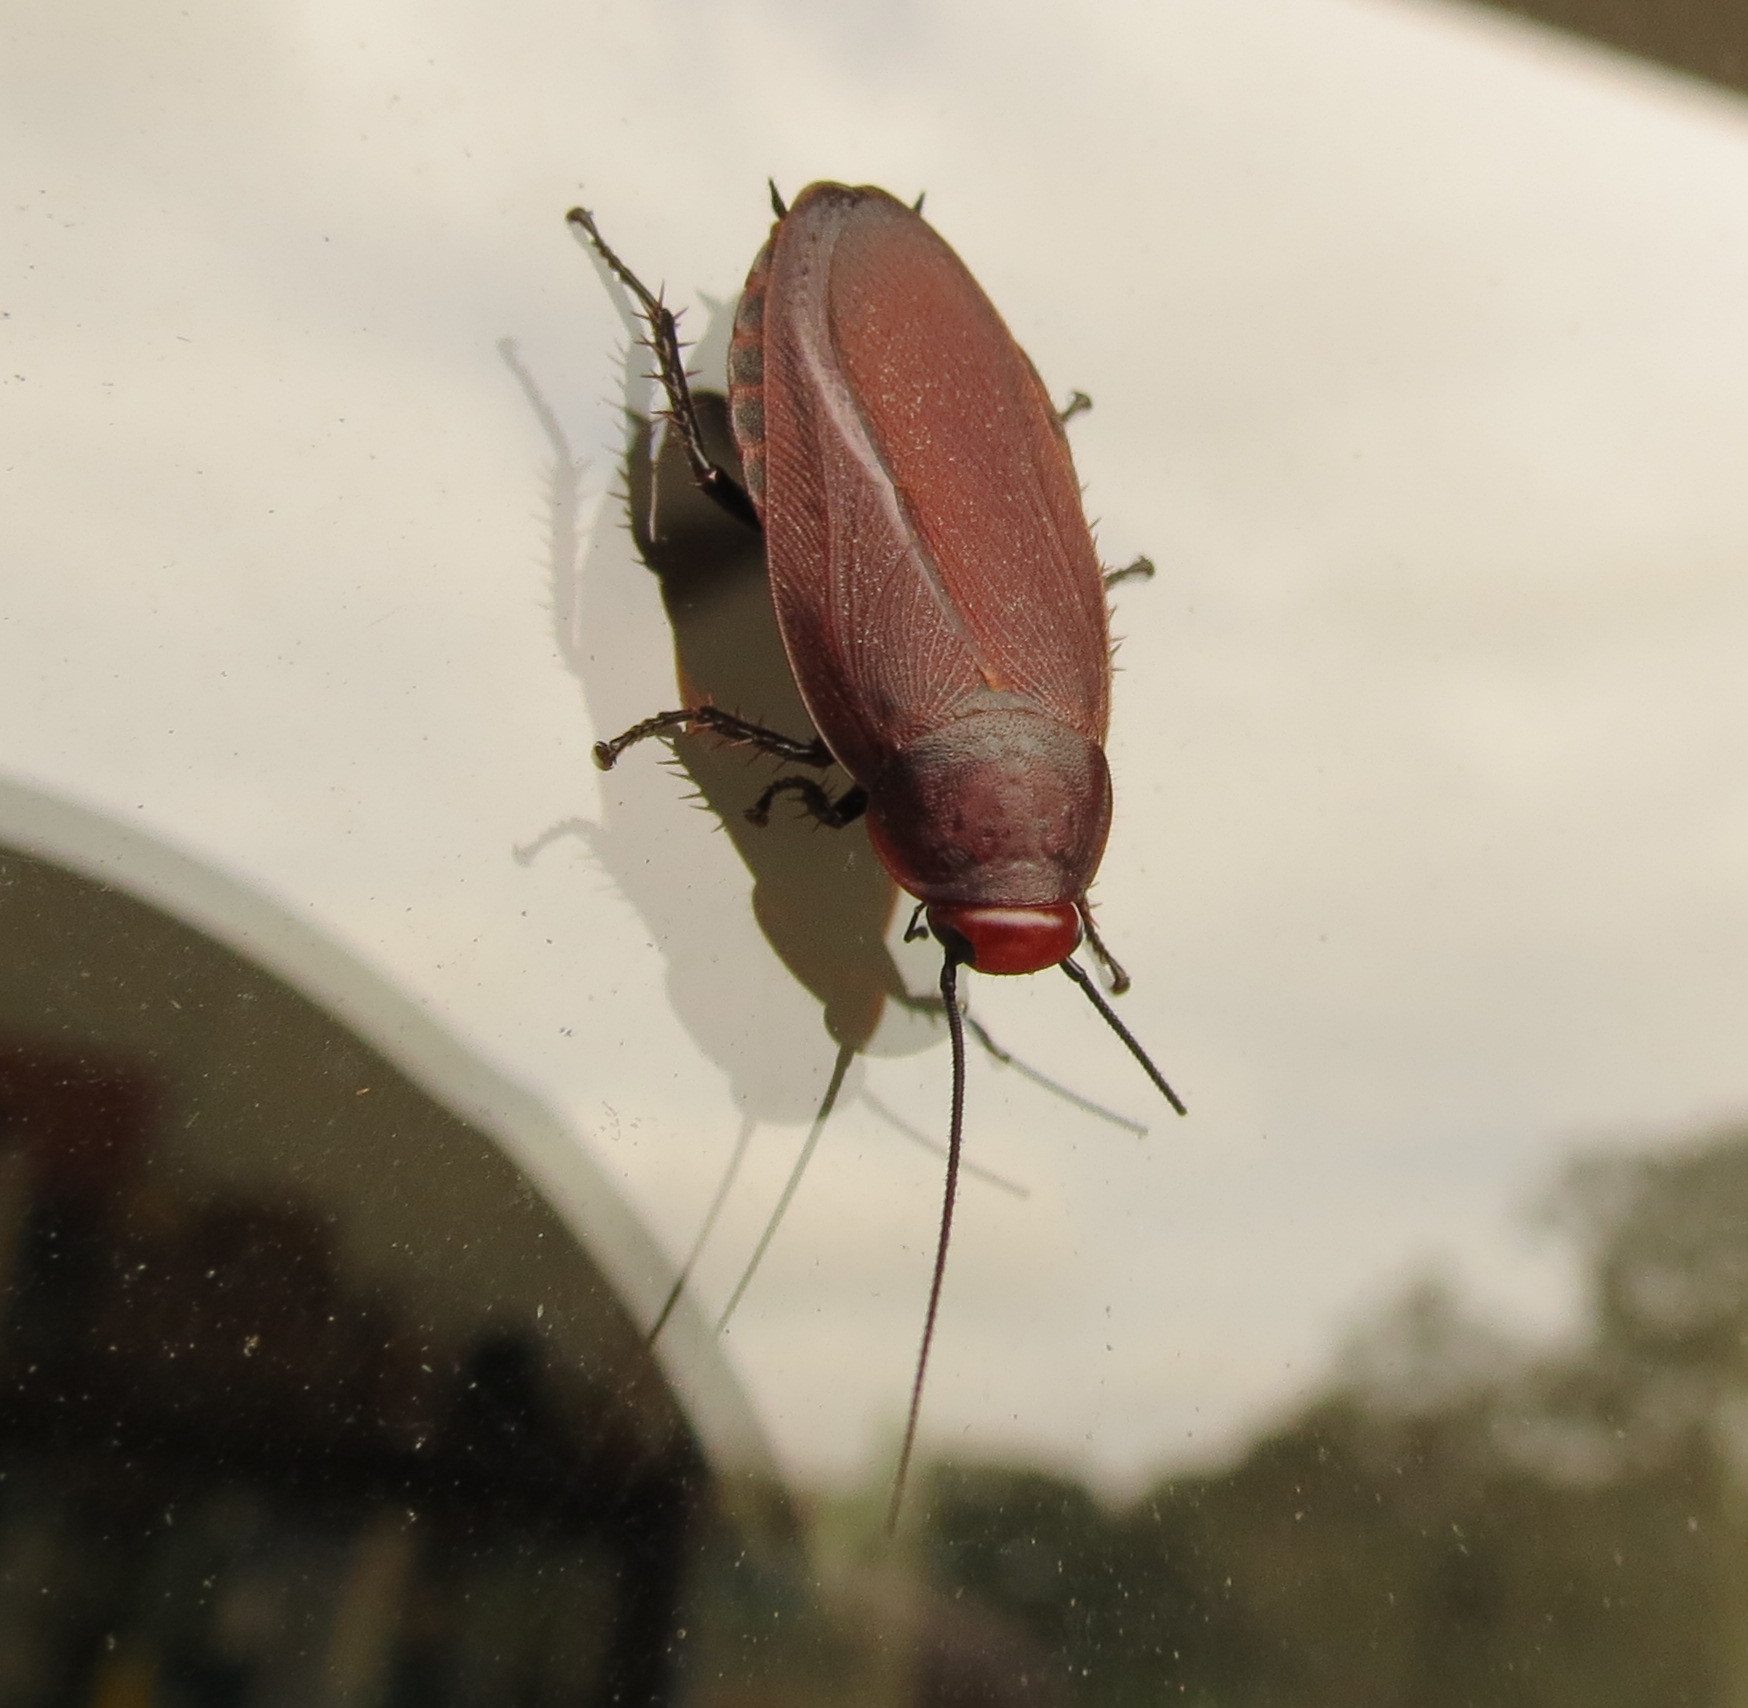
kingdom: Animalia
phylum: Arthropoda
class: Insecta
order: Blattodea
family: Blaberidae
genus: Oxyhaloa
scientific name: Oxyhaloa deusta
